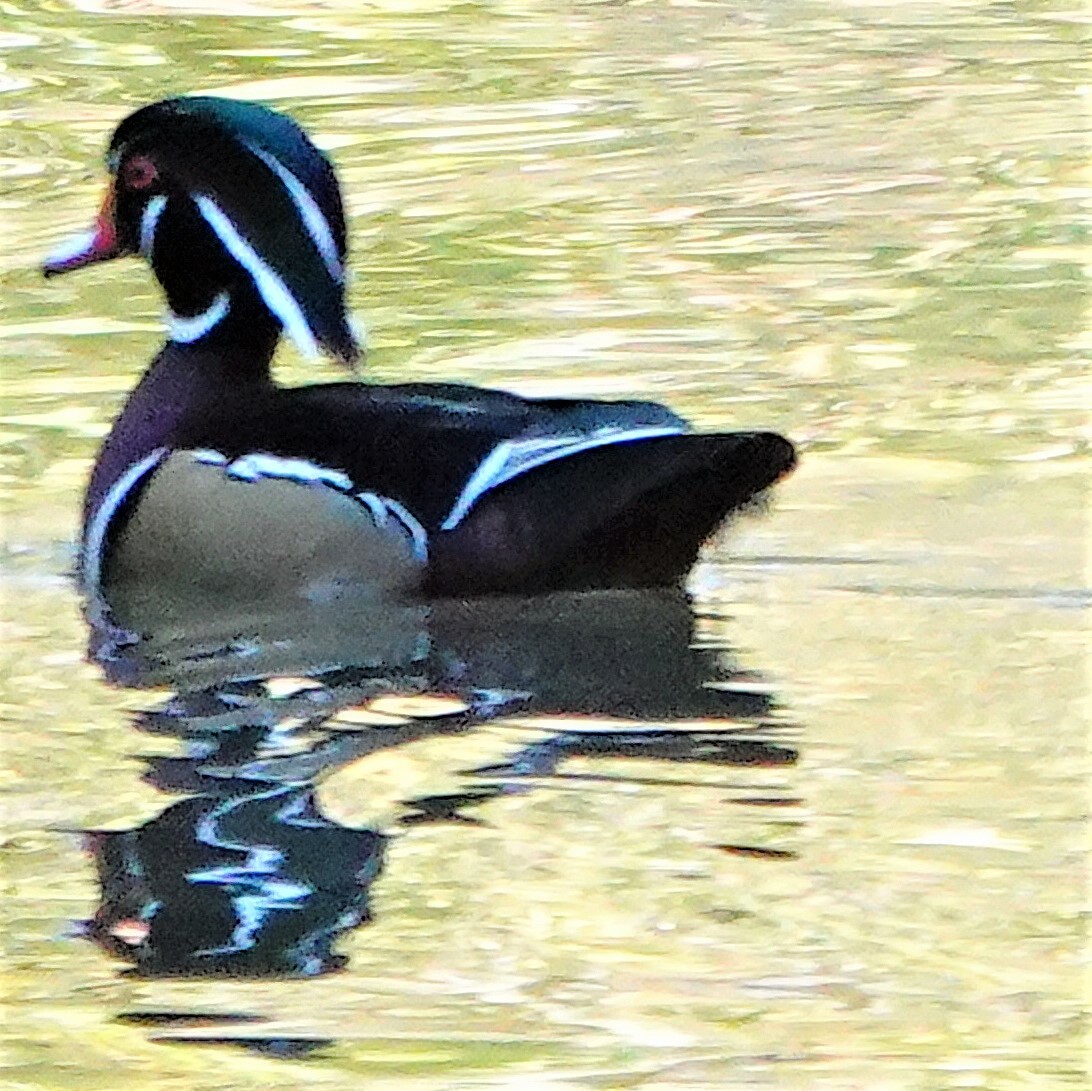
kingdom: Animalia
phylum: Chordata
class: Aves
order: Anseriformes
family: Anatidae
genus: Aix
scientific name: Aix sponsa
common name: Wood duck
